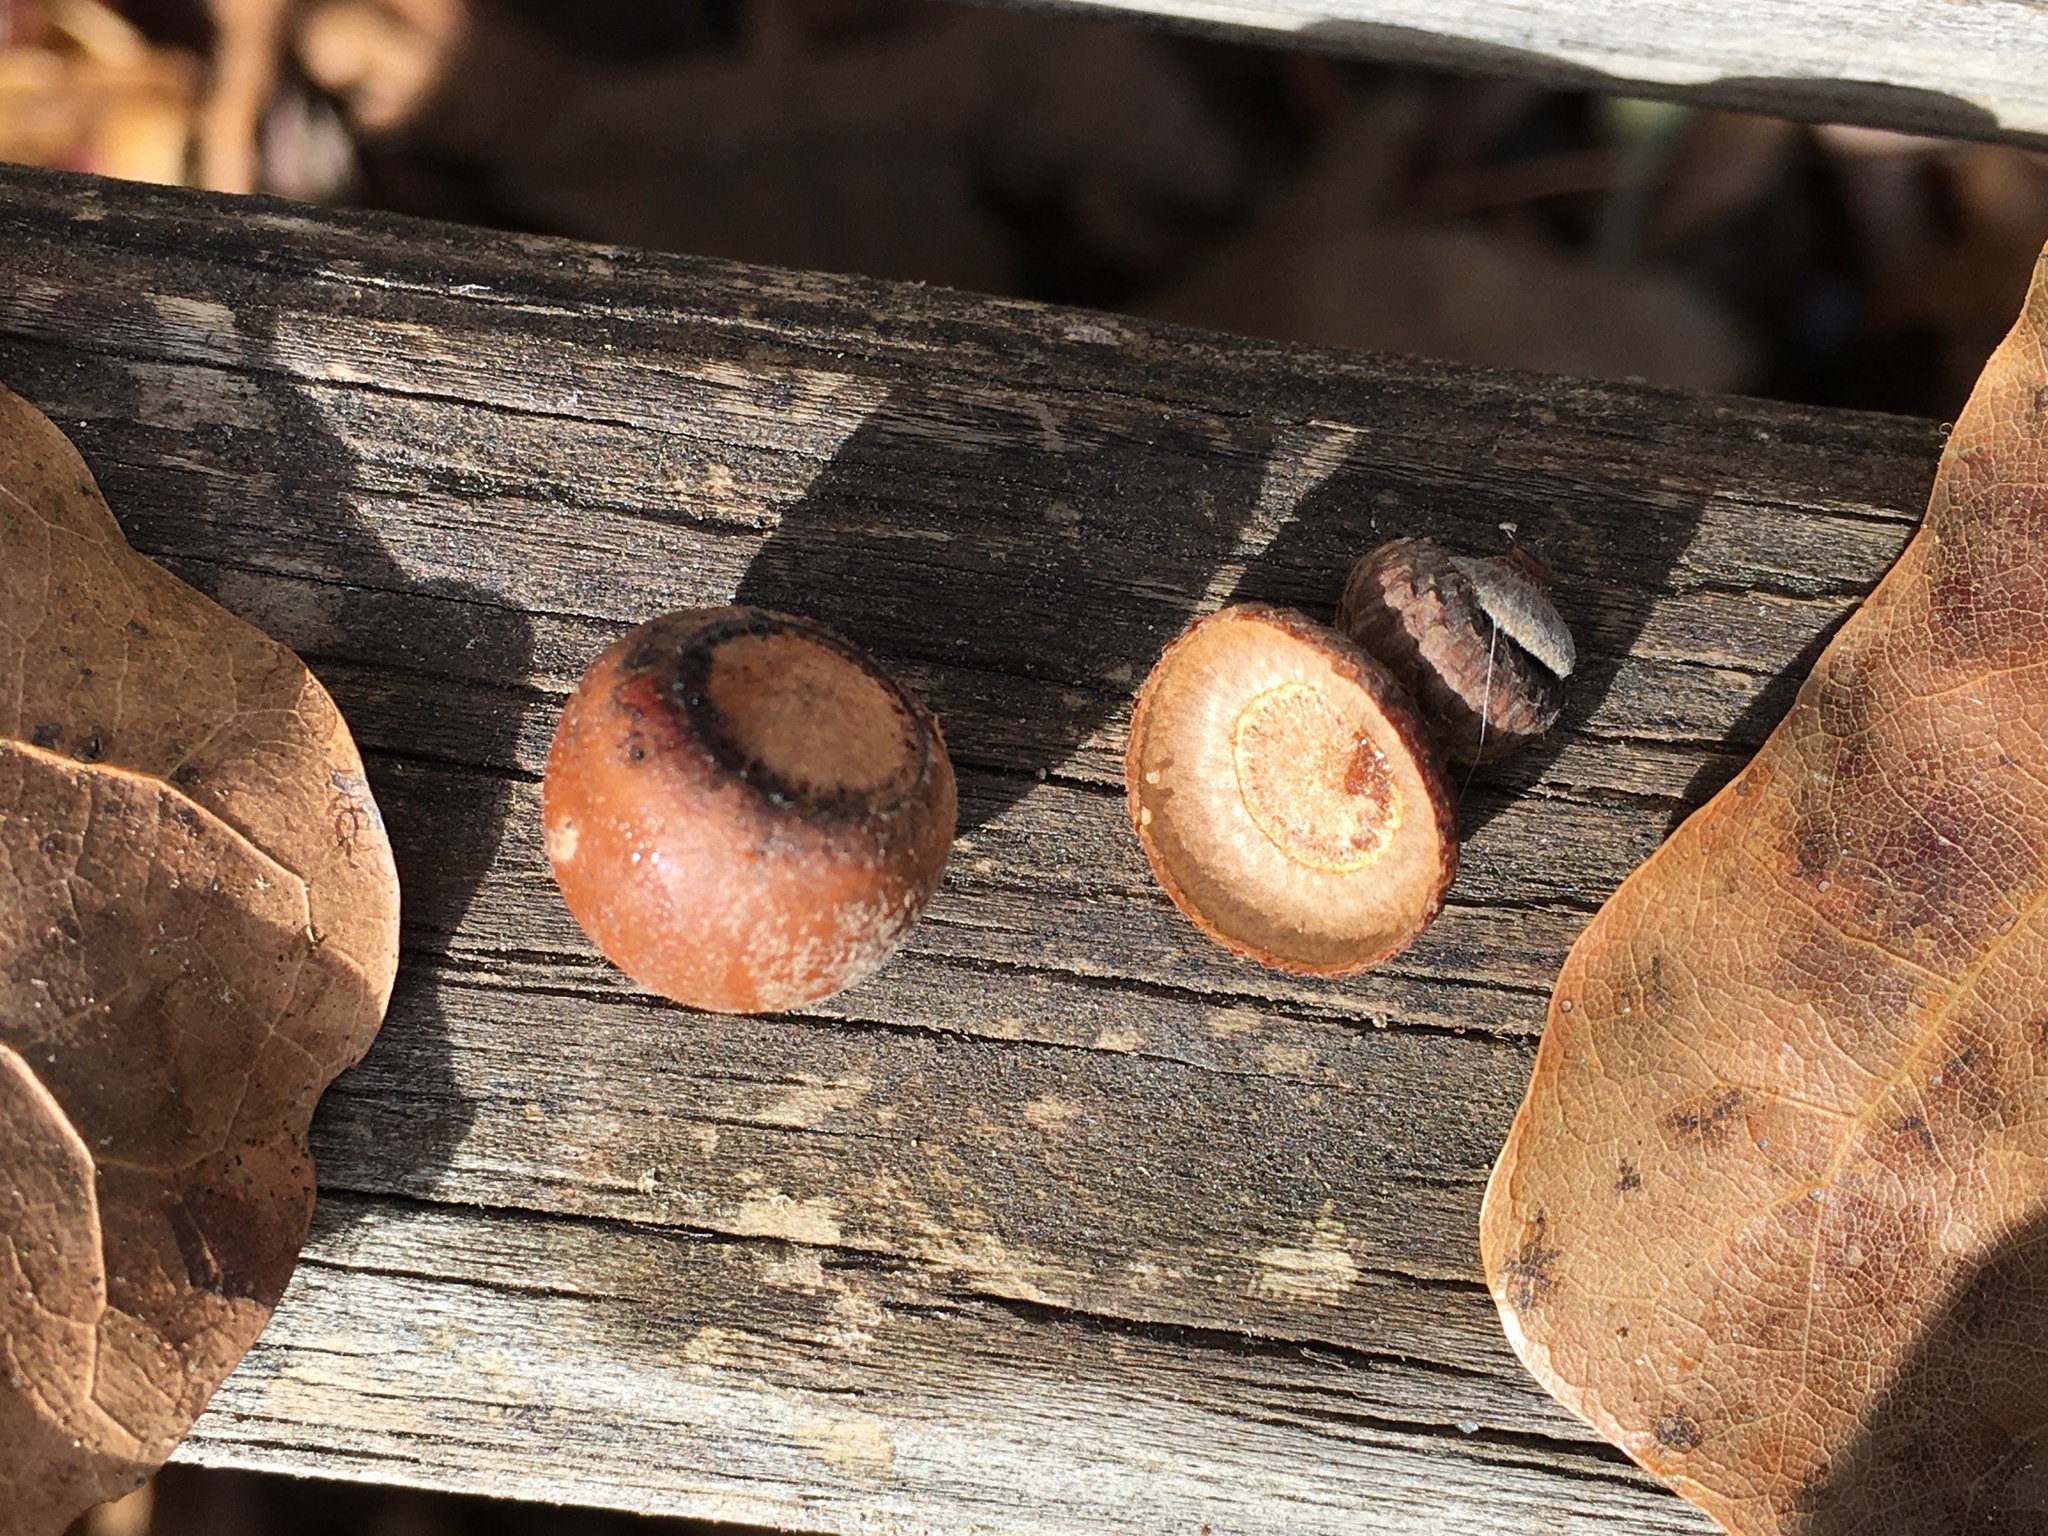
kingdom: Plantae
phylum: Tracheophyta
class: Magnoliopsida
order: Fagales
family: Fagaceae
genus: Quercus
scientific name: Quercus nigra
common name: Water oak
